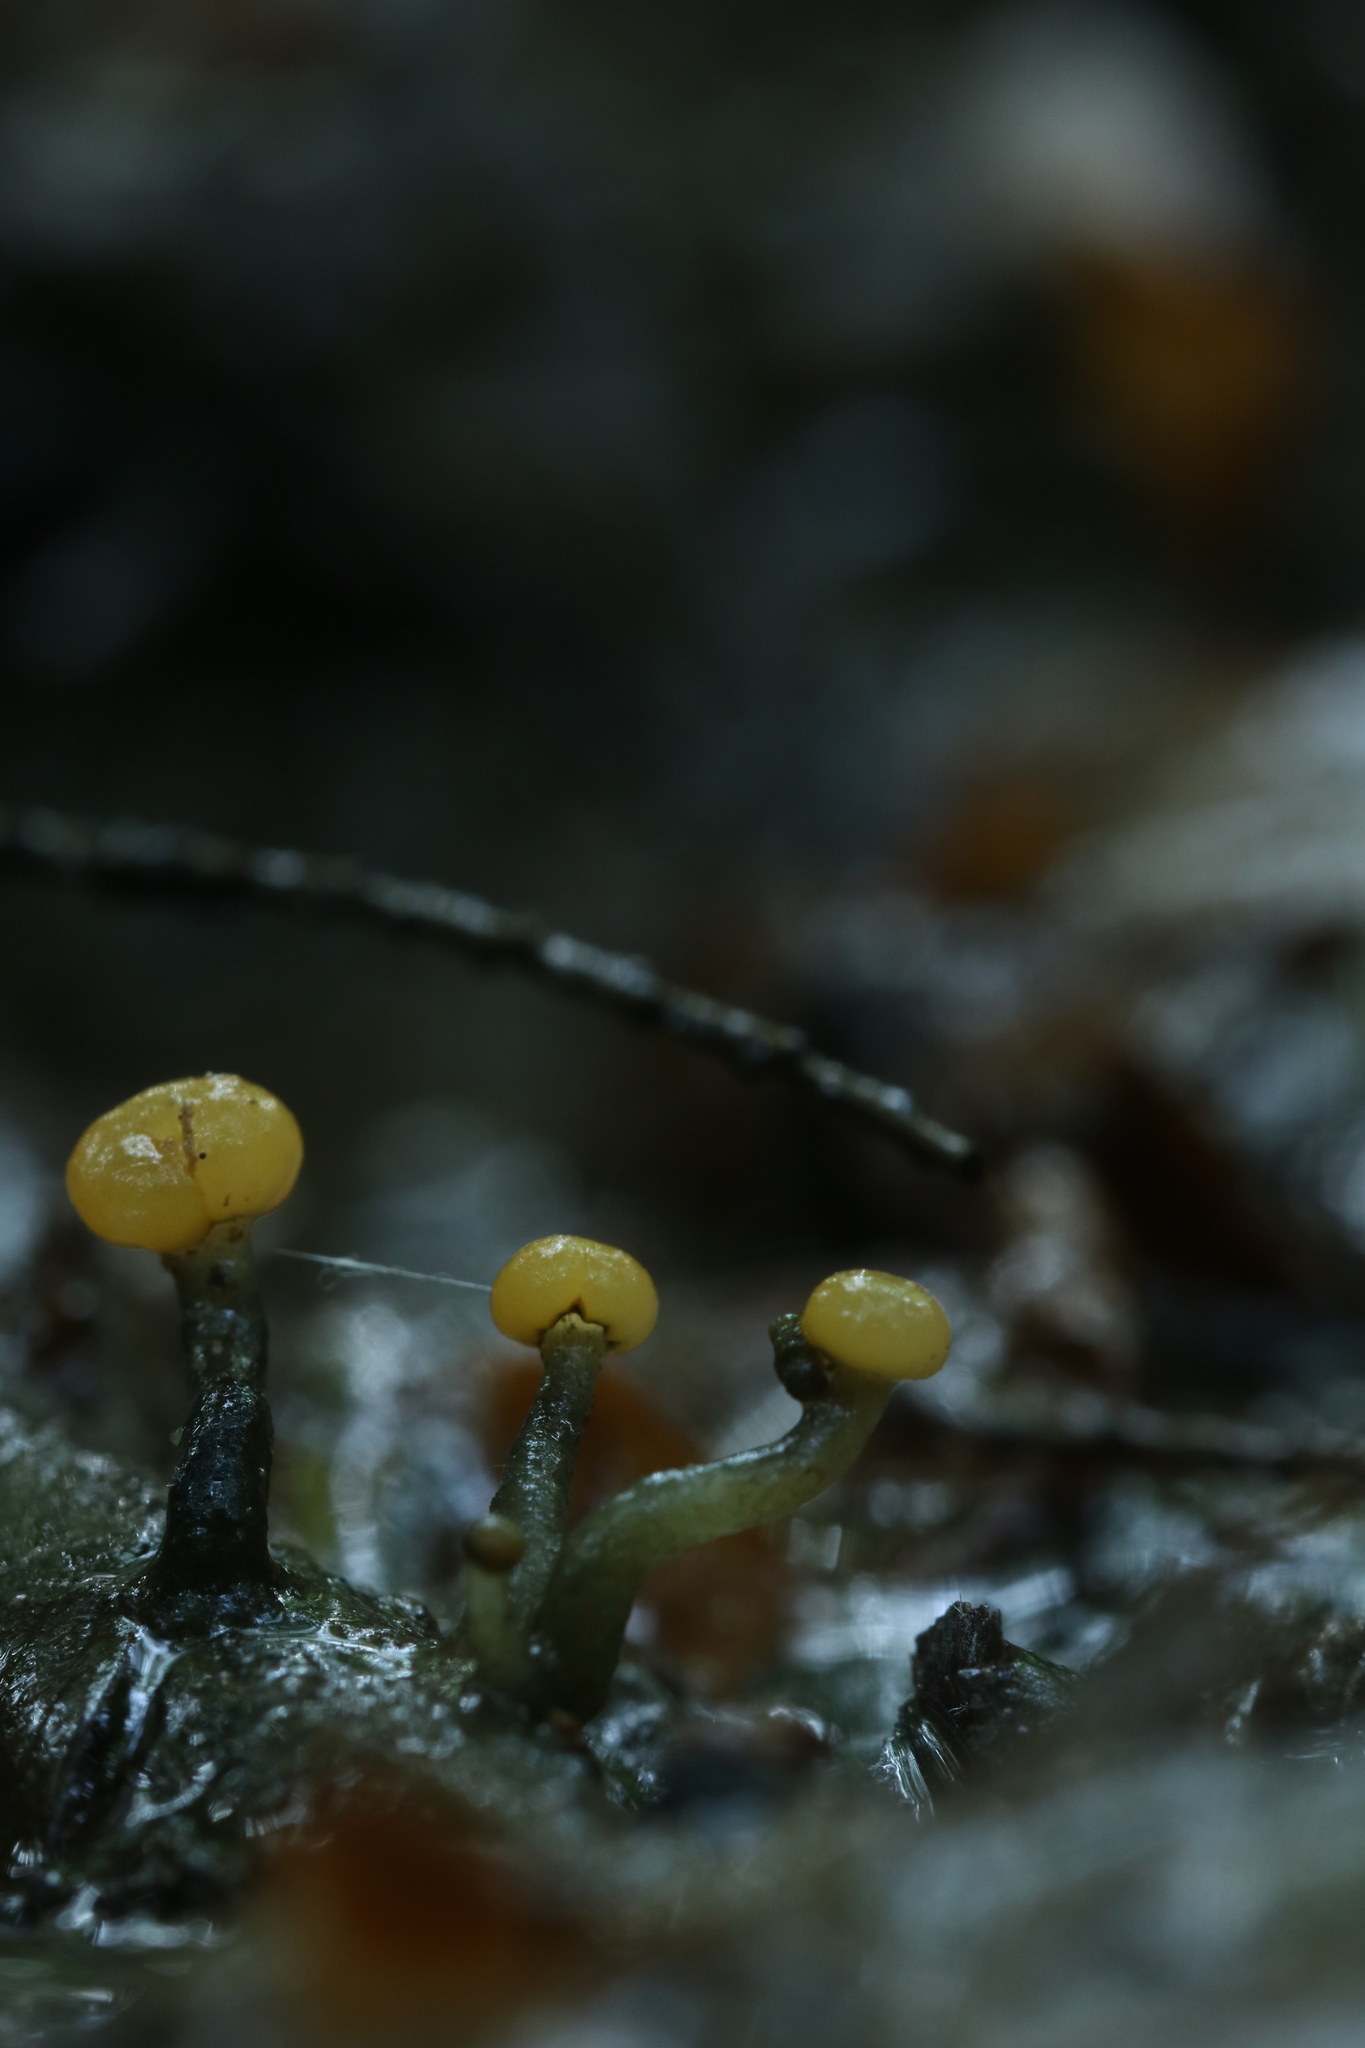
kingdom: Fungi
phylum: Ascomycota
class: Leotiomycetes
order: Helotiales
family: Vibrisseaceae
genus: Vibrissea
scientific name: Vibrissea truncorum
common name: Stream beacon
